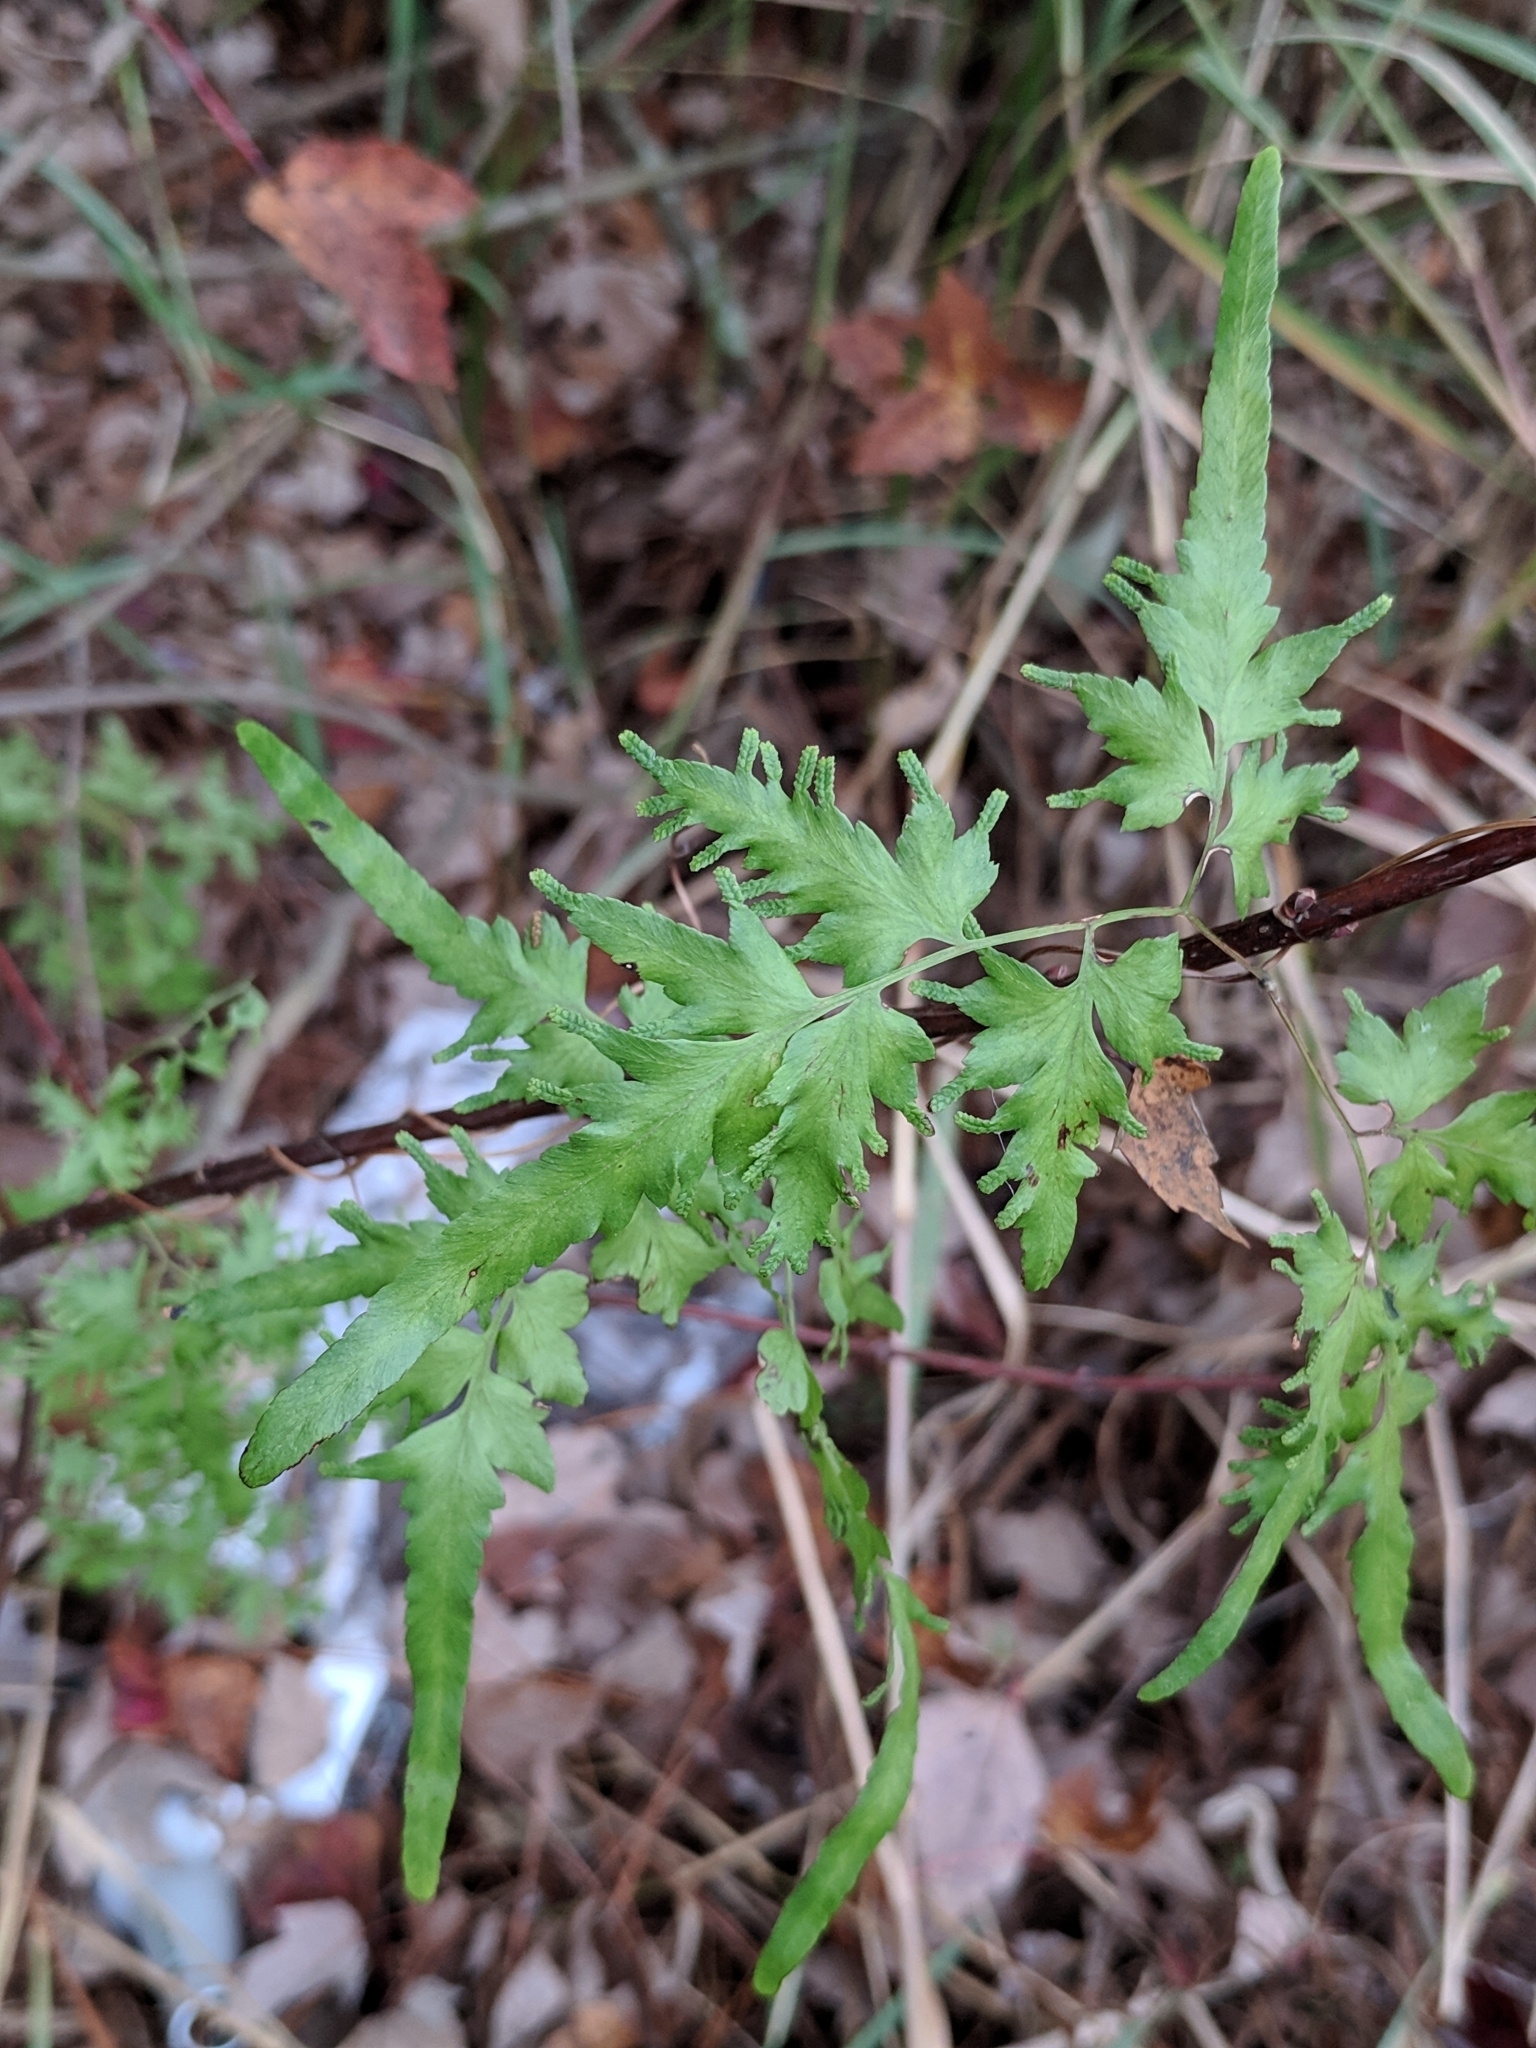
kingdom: Plantae
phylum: Tracheophyta
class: Polypodiopsida
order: Schizaeales
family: Lygodiaceae
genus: Lygodium
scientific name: Lygodium japonicum
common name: Japanese climbing fern
